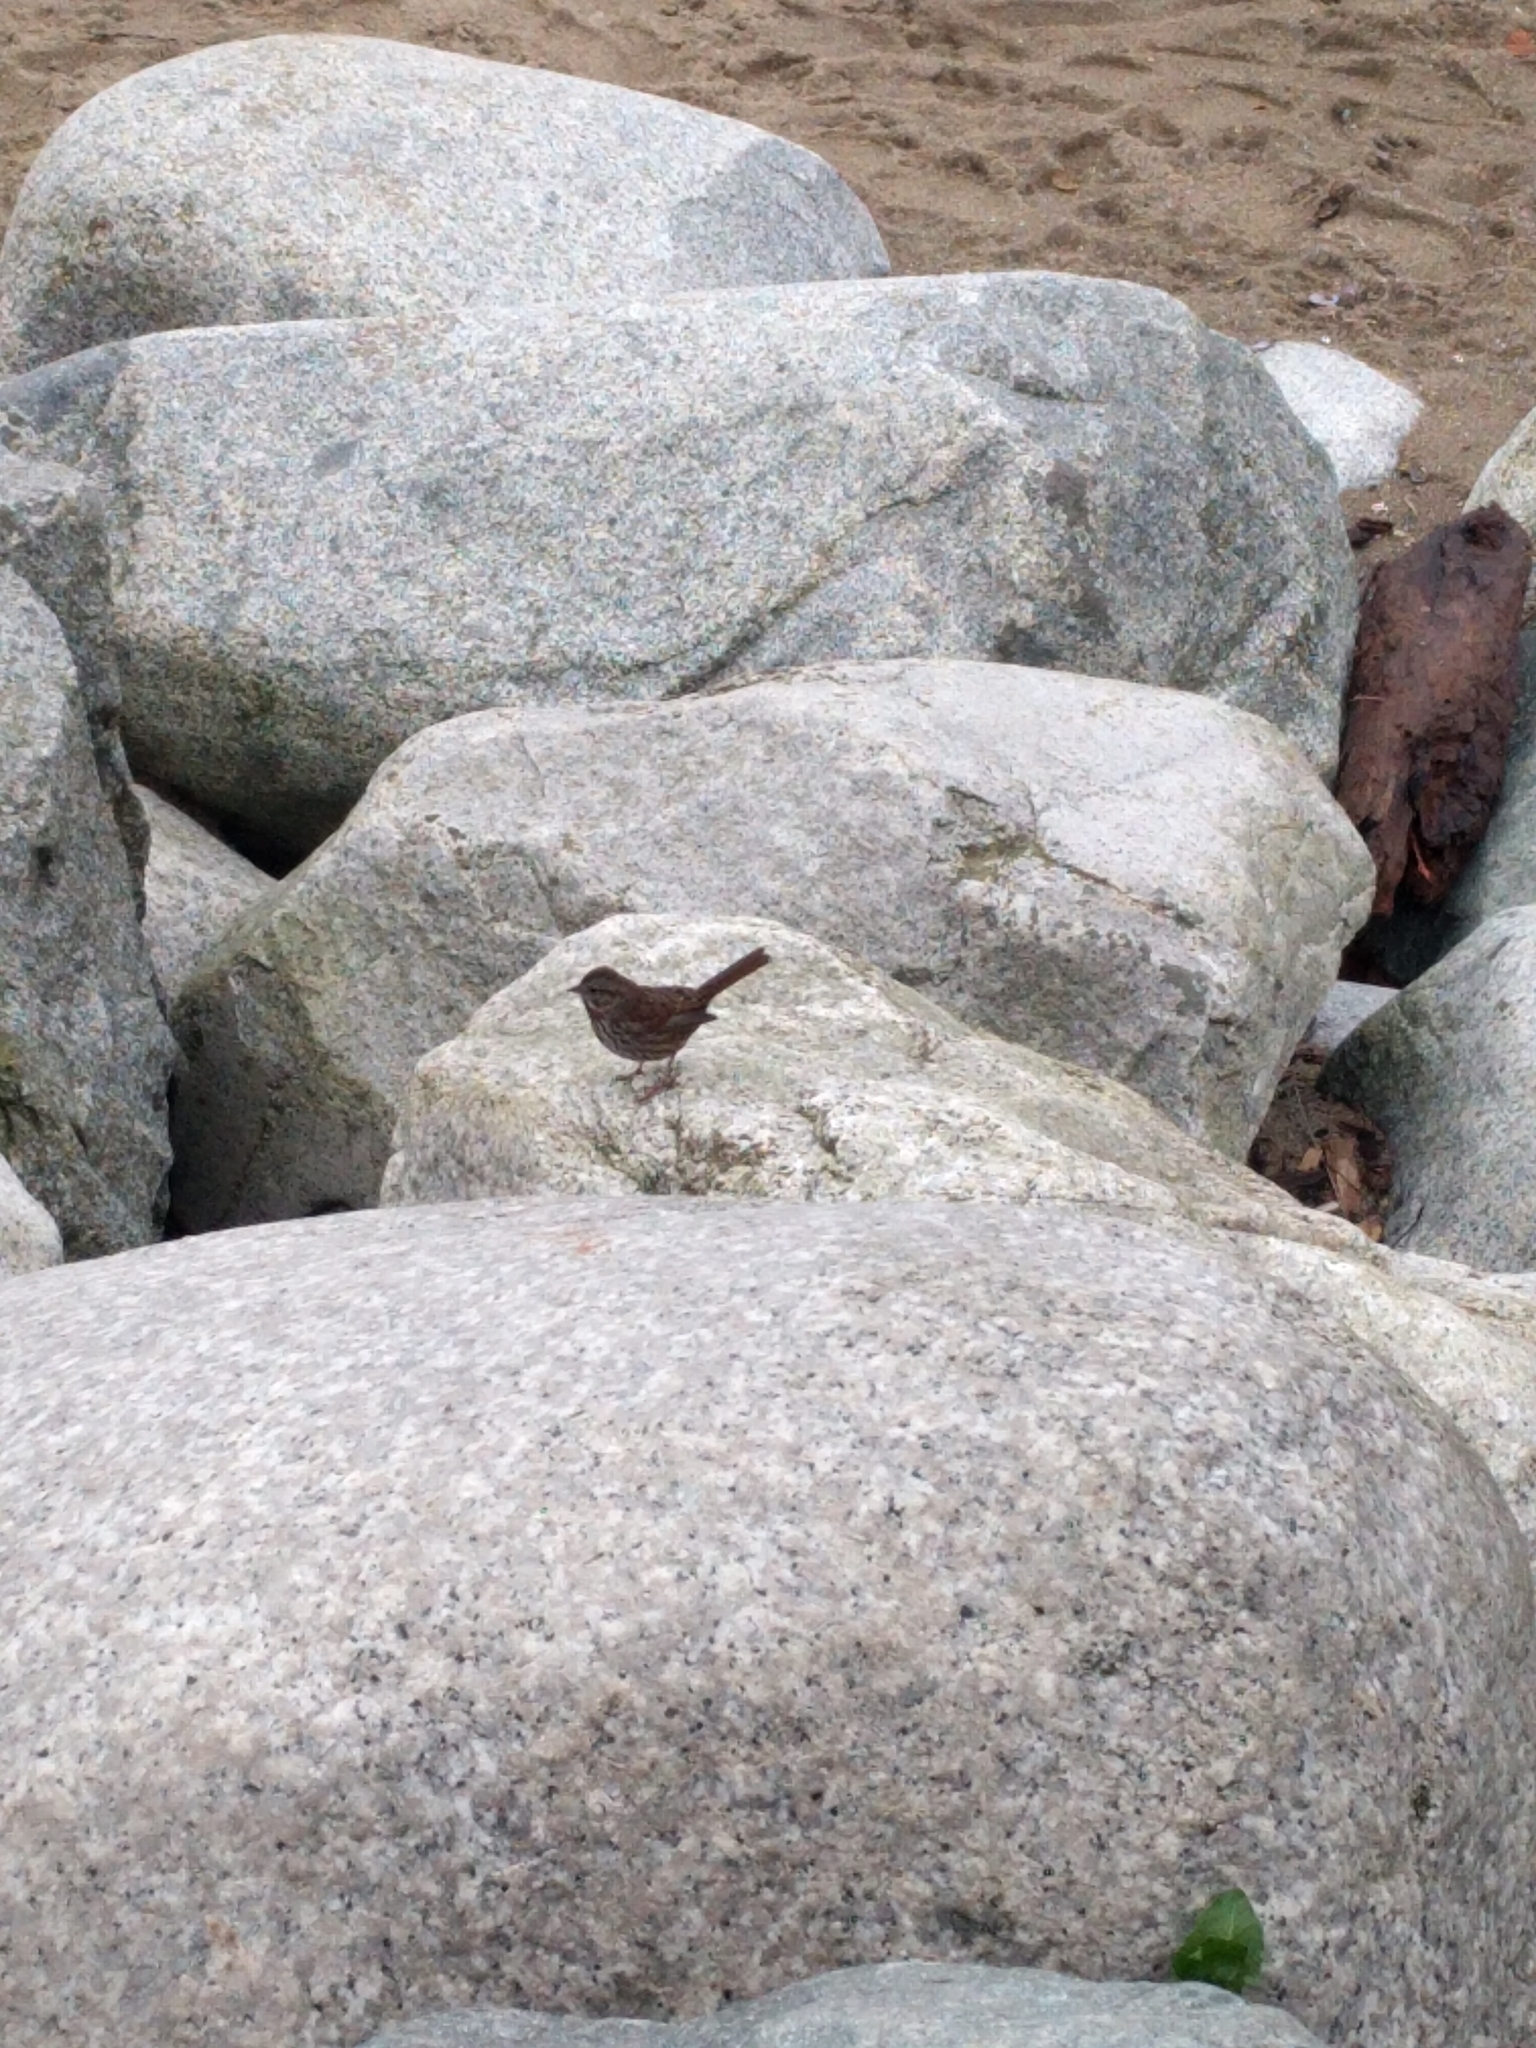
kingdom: Animalia
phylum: Chordata
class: Aves
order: Passeriformes
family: Passerellidae
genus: Melospiza
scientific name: Melospiza melodia
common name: Song sparrow
